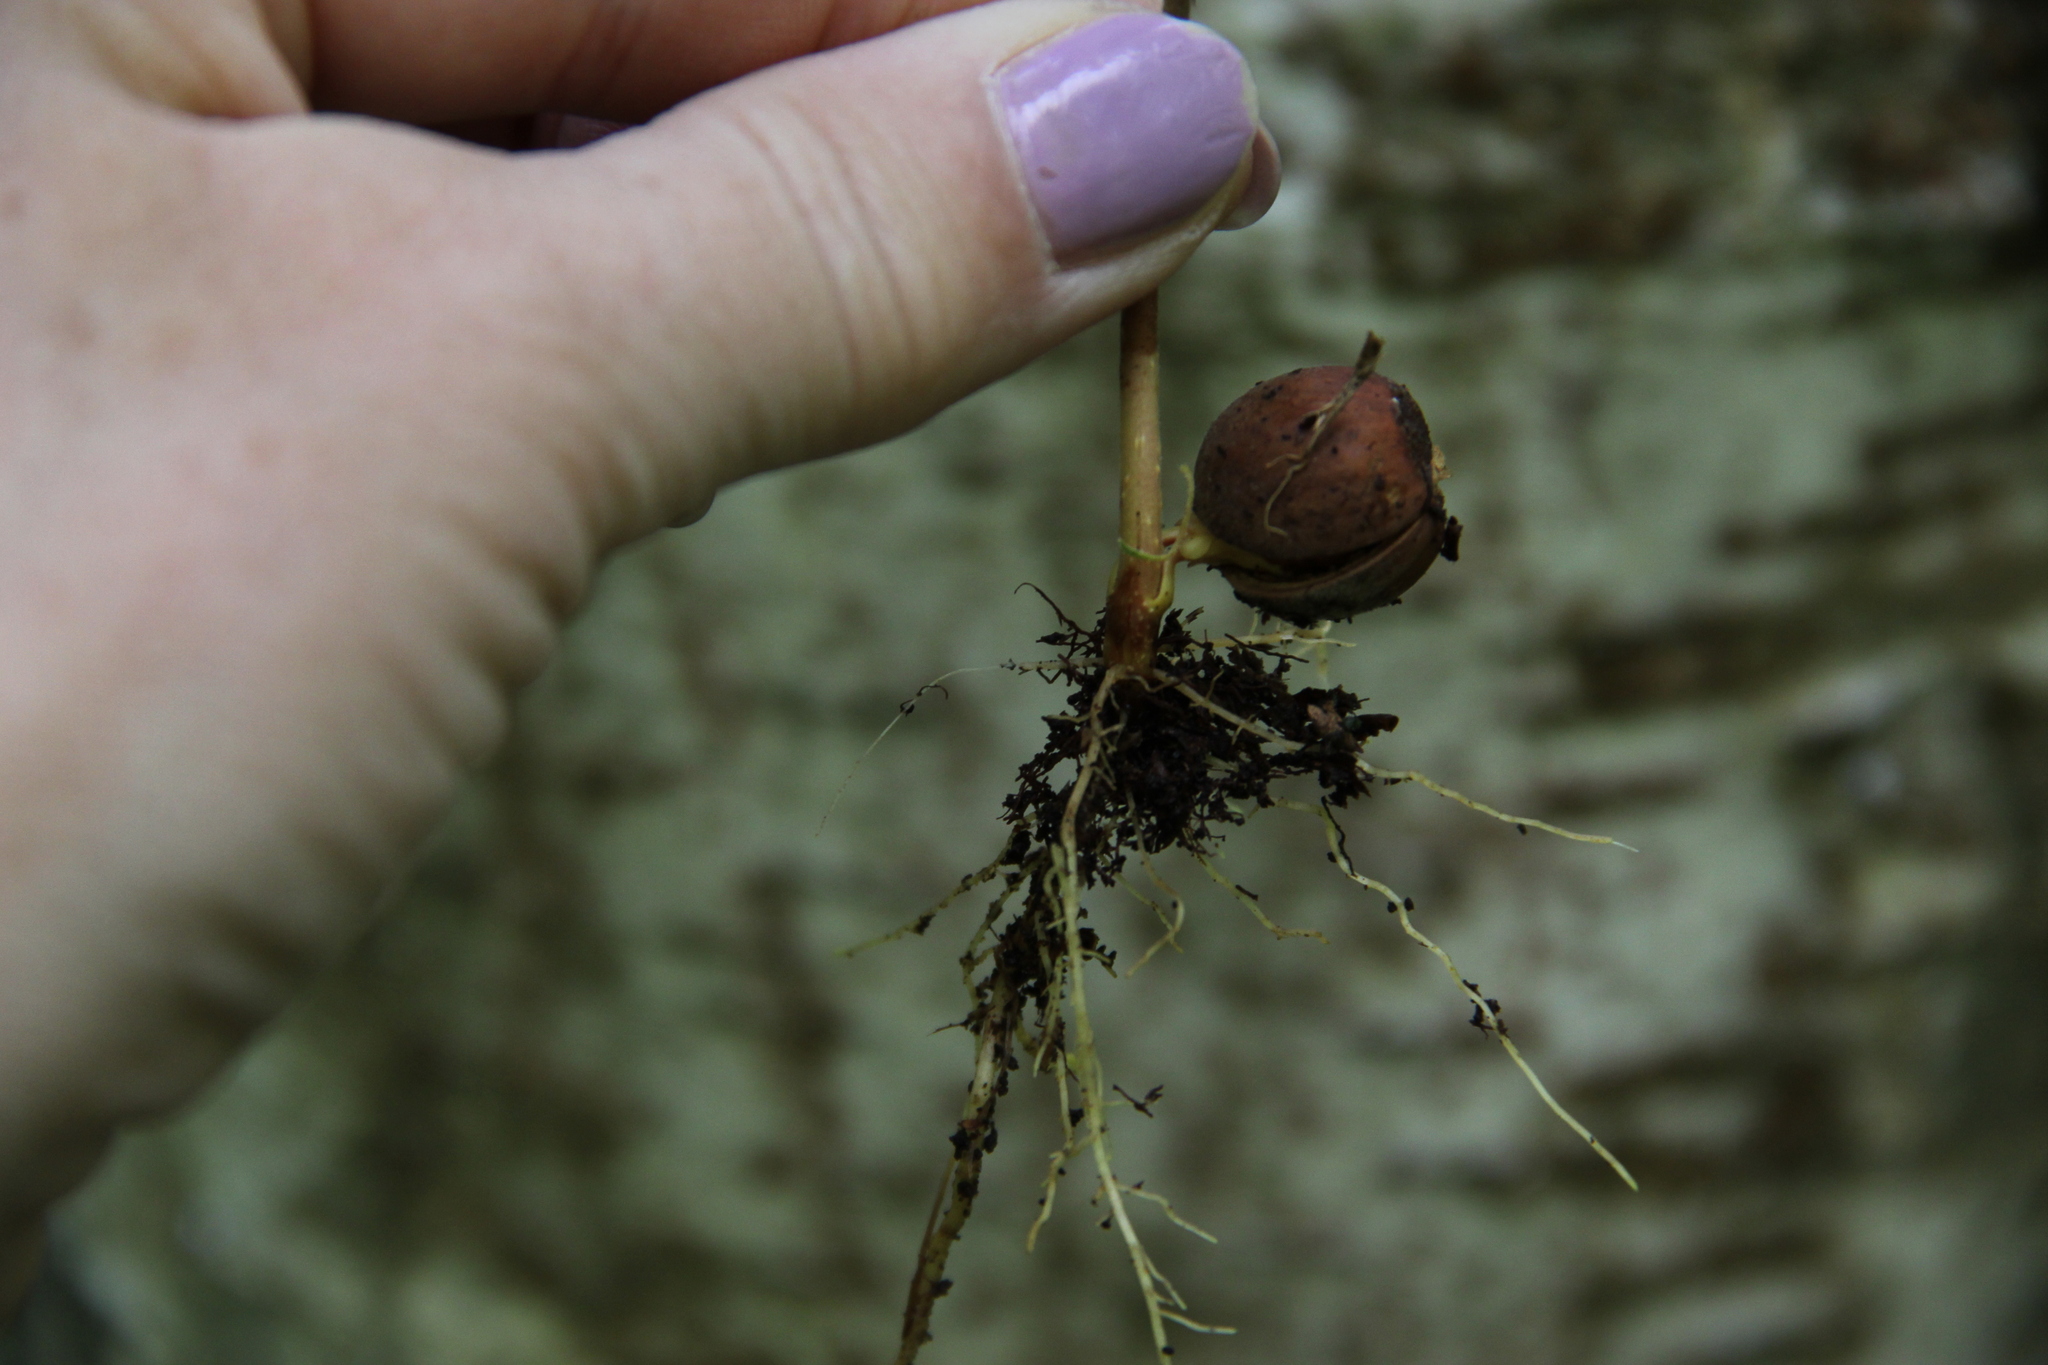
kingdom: Plantae
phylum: Tracheophyta
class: Magnoliopsida
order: Fagales
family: Betulaceae
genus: Corylus
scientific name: Corylus avellana
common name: European hazel
